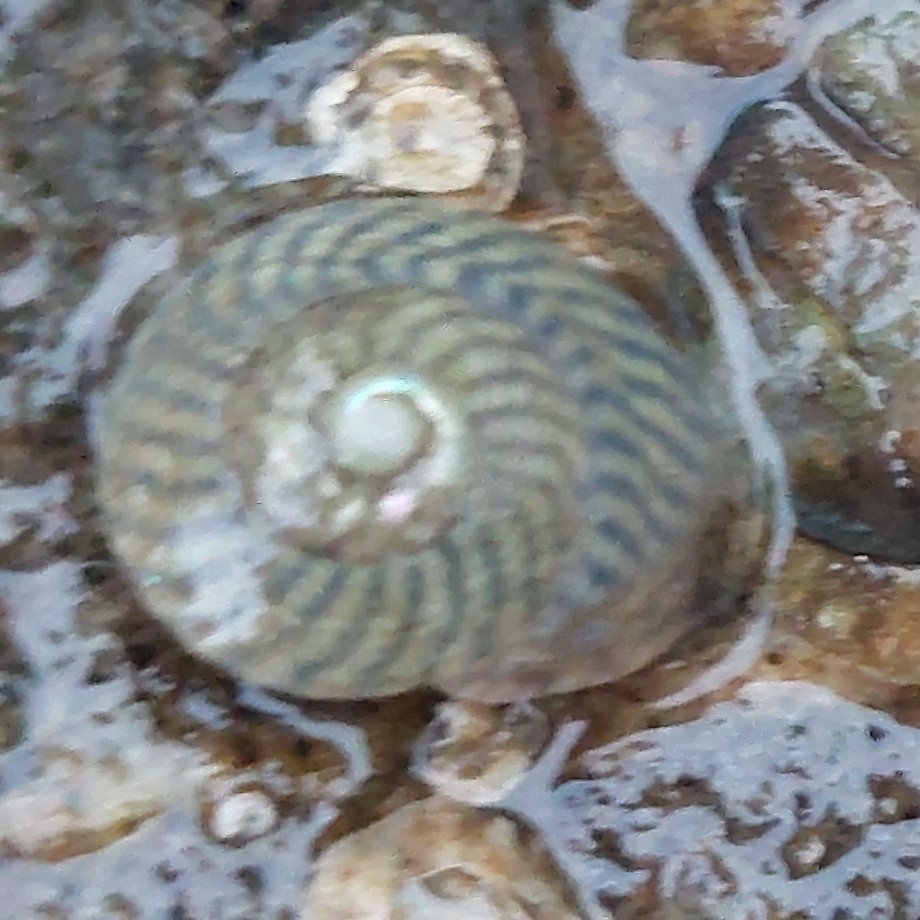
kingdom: Animalia
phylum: Mollusca
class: Gastropoda
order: Trochida
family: Trochidae
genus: Steromphala
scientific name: Steromphala cineraria
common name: Grey top shell
